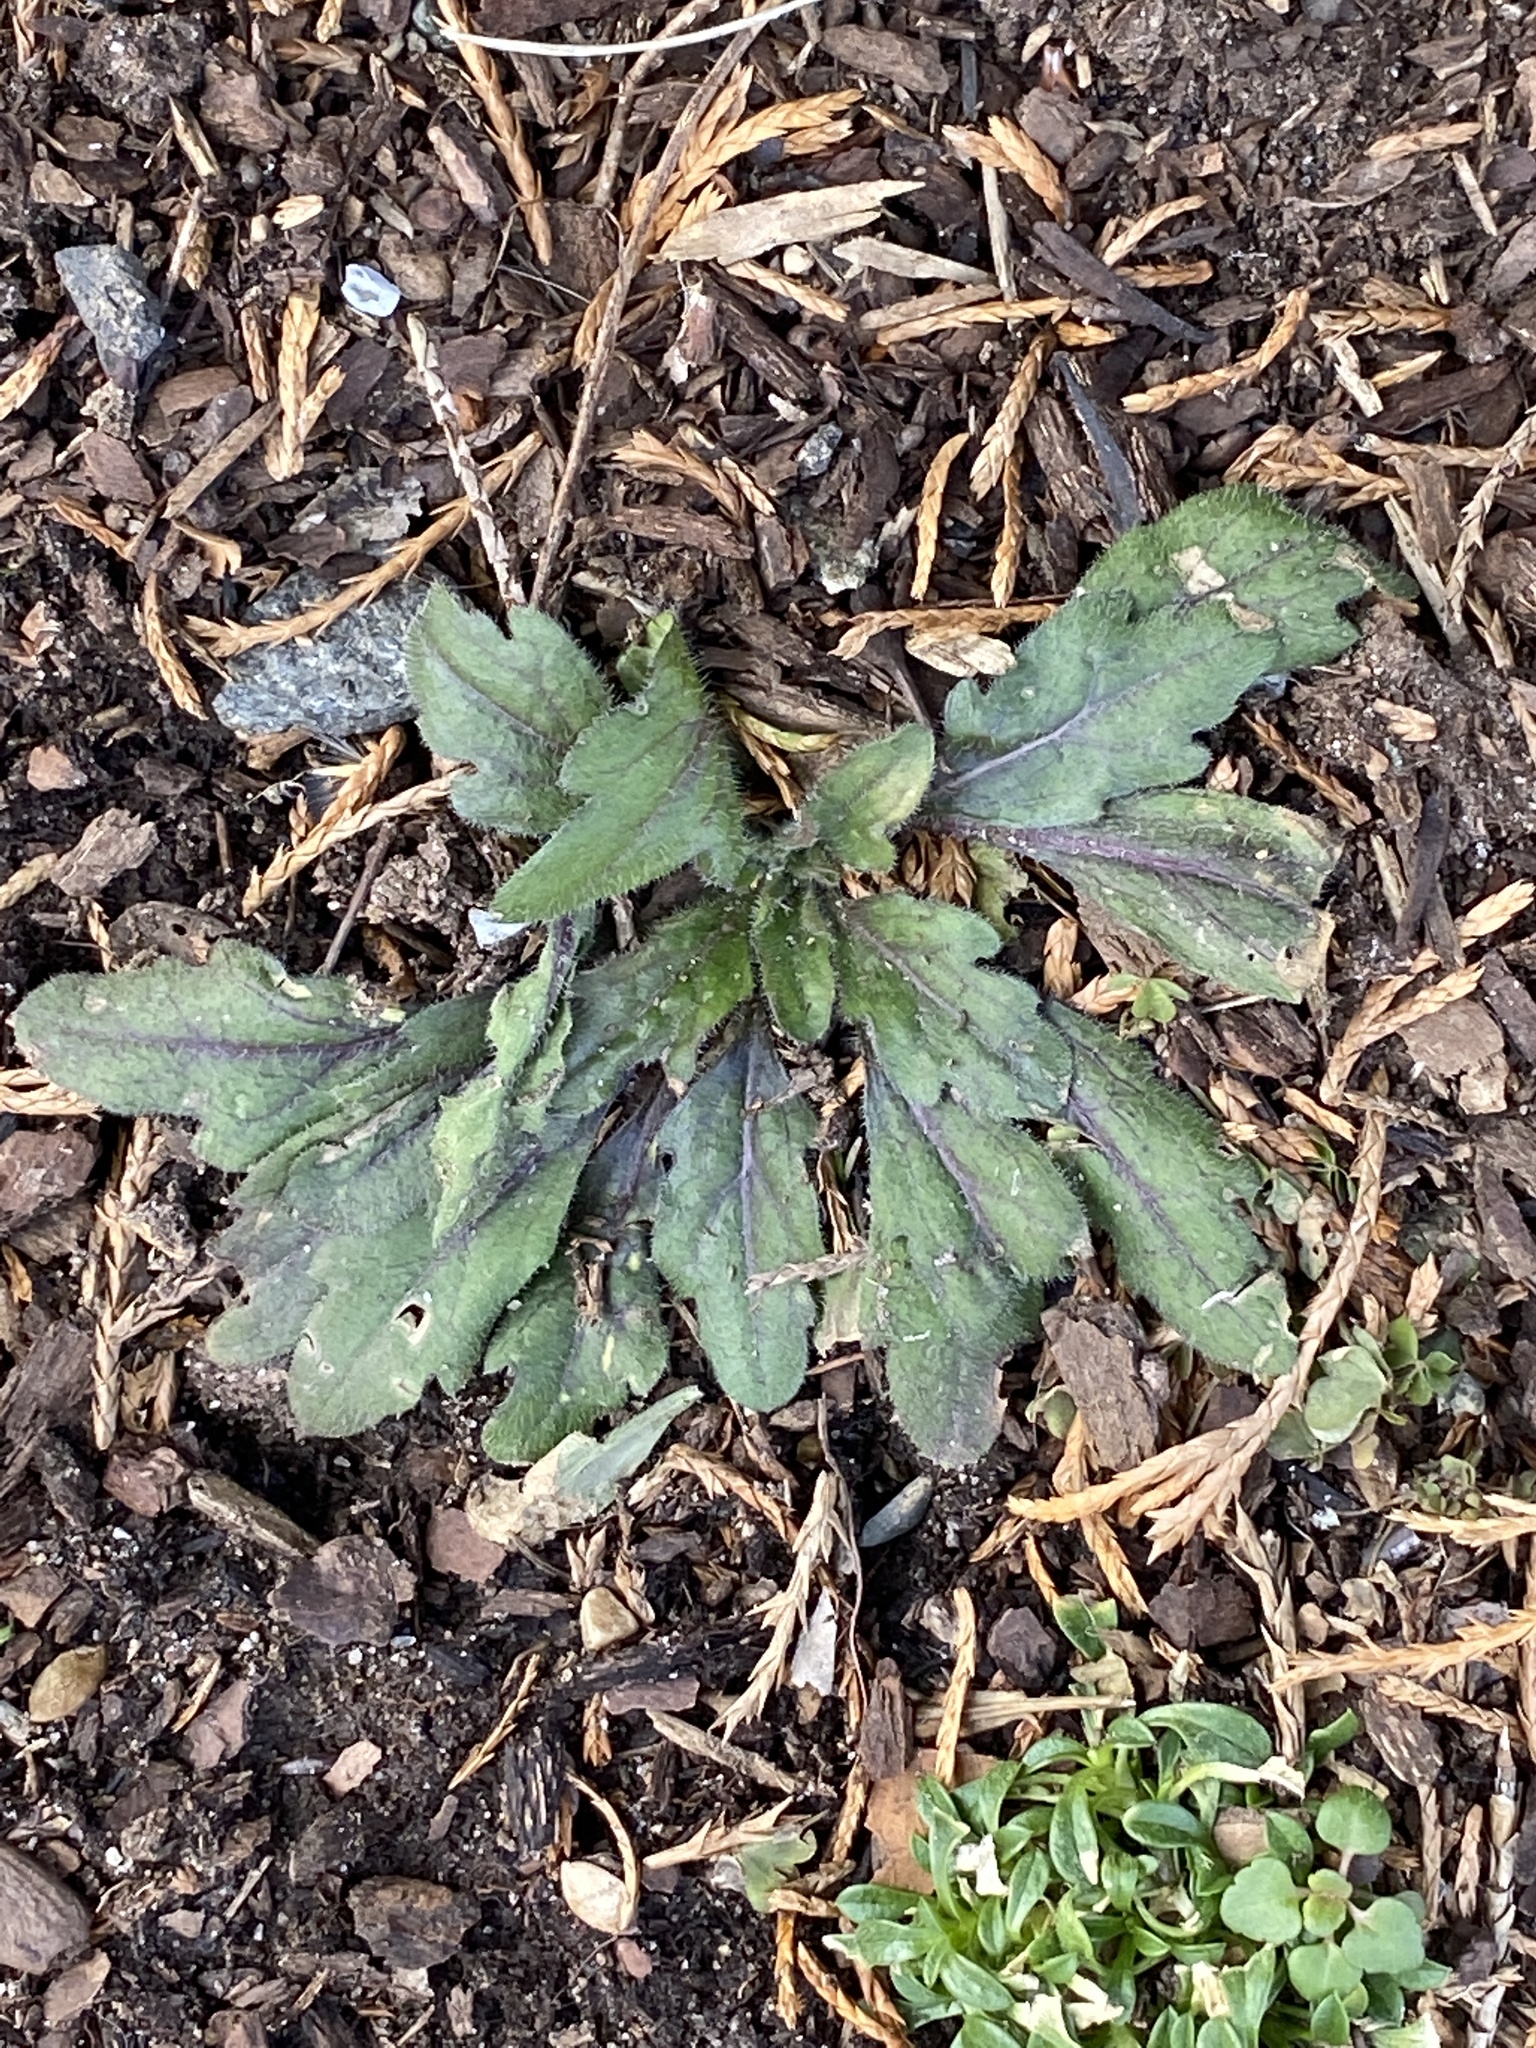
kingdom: Plantae
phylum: Tracheophyta
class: Magnoliopsida
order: Asterales
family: Asteraceae
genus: Erigeron
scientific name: Erigeron canadensis
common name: Canadian fleabane
